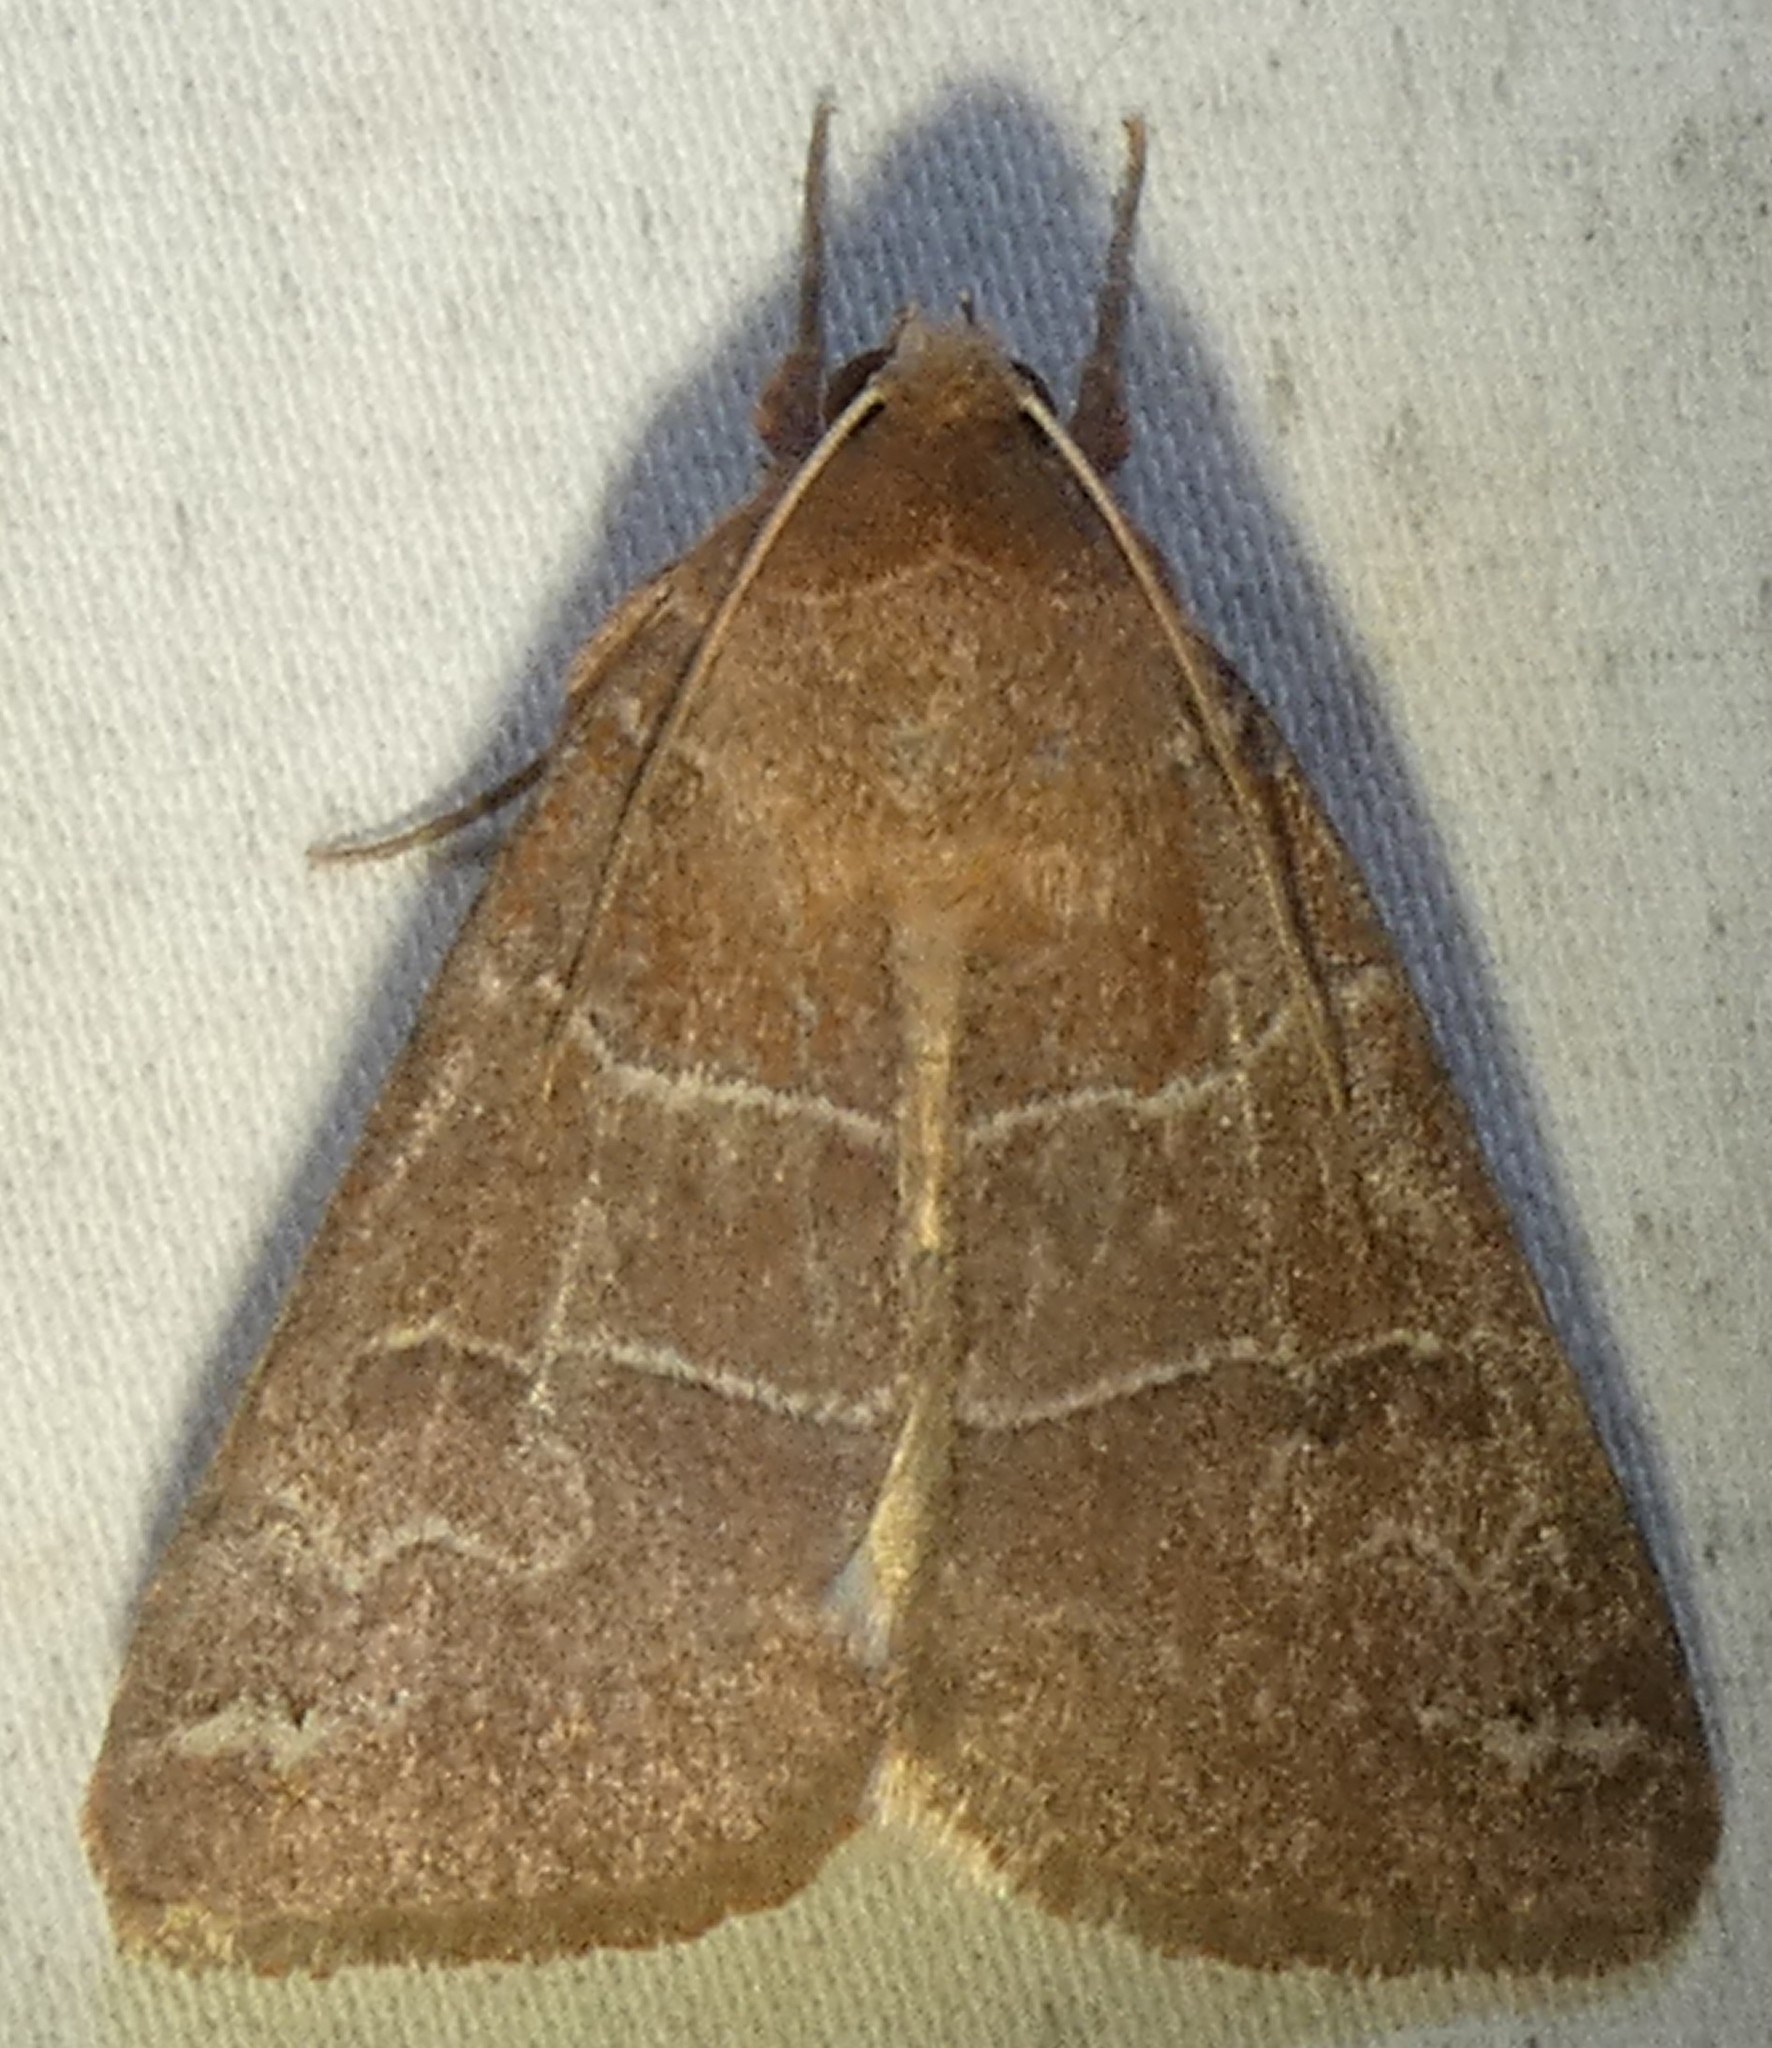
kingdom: Animalia
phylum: Arthropoda
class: Insecta
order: Lepidoptera
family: Erebidae
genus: Cissusa
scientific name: Cissusa spadix
